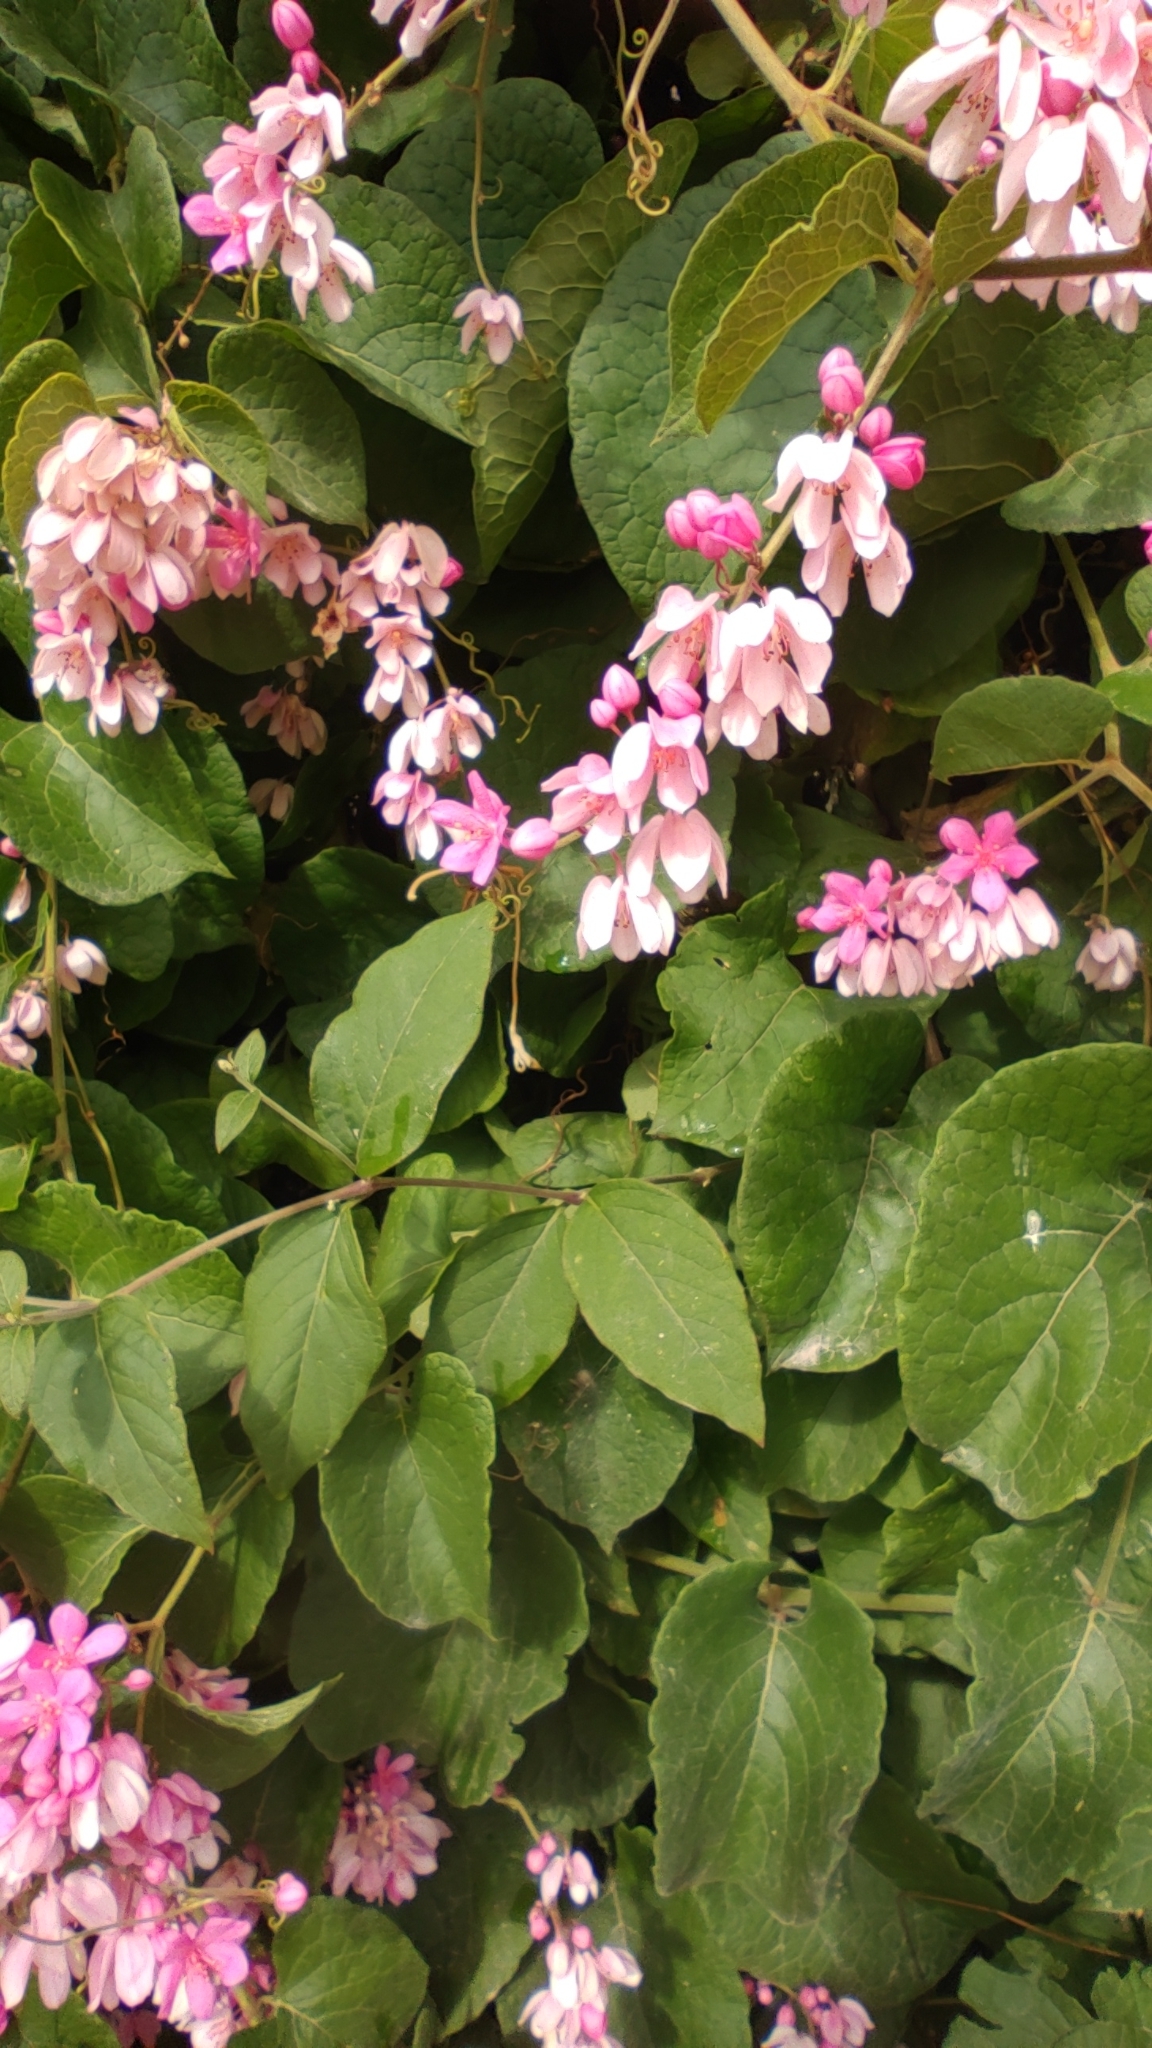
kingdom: Plantae
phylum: Tracheophyta
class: Magnoliopsida
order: Caryophyllales
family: Polygonaceae
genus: Antigonon
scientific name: Antigonon leptopus
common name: Coral vine
